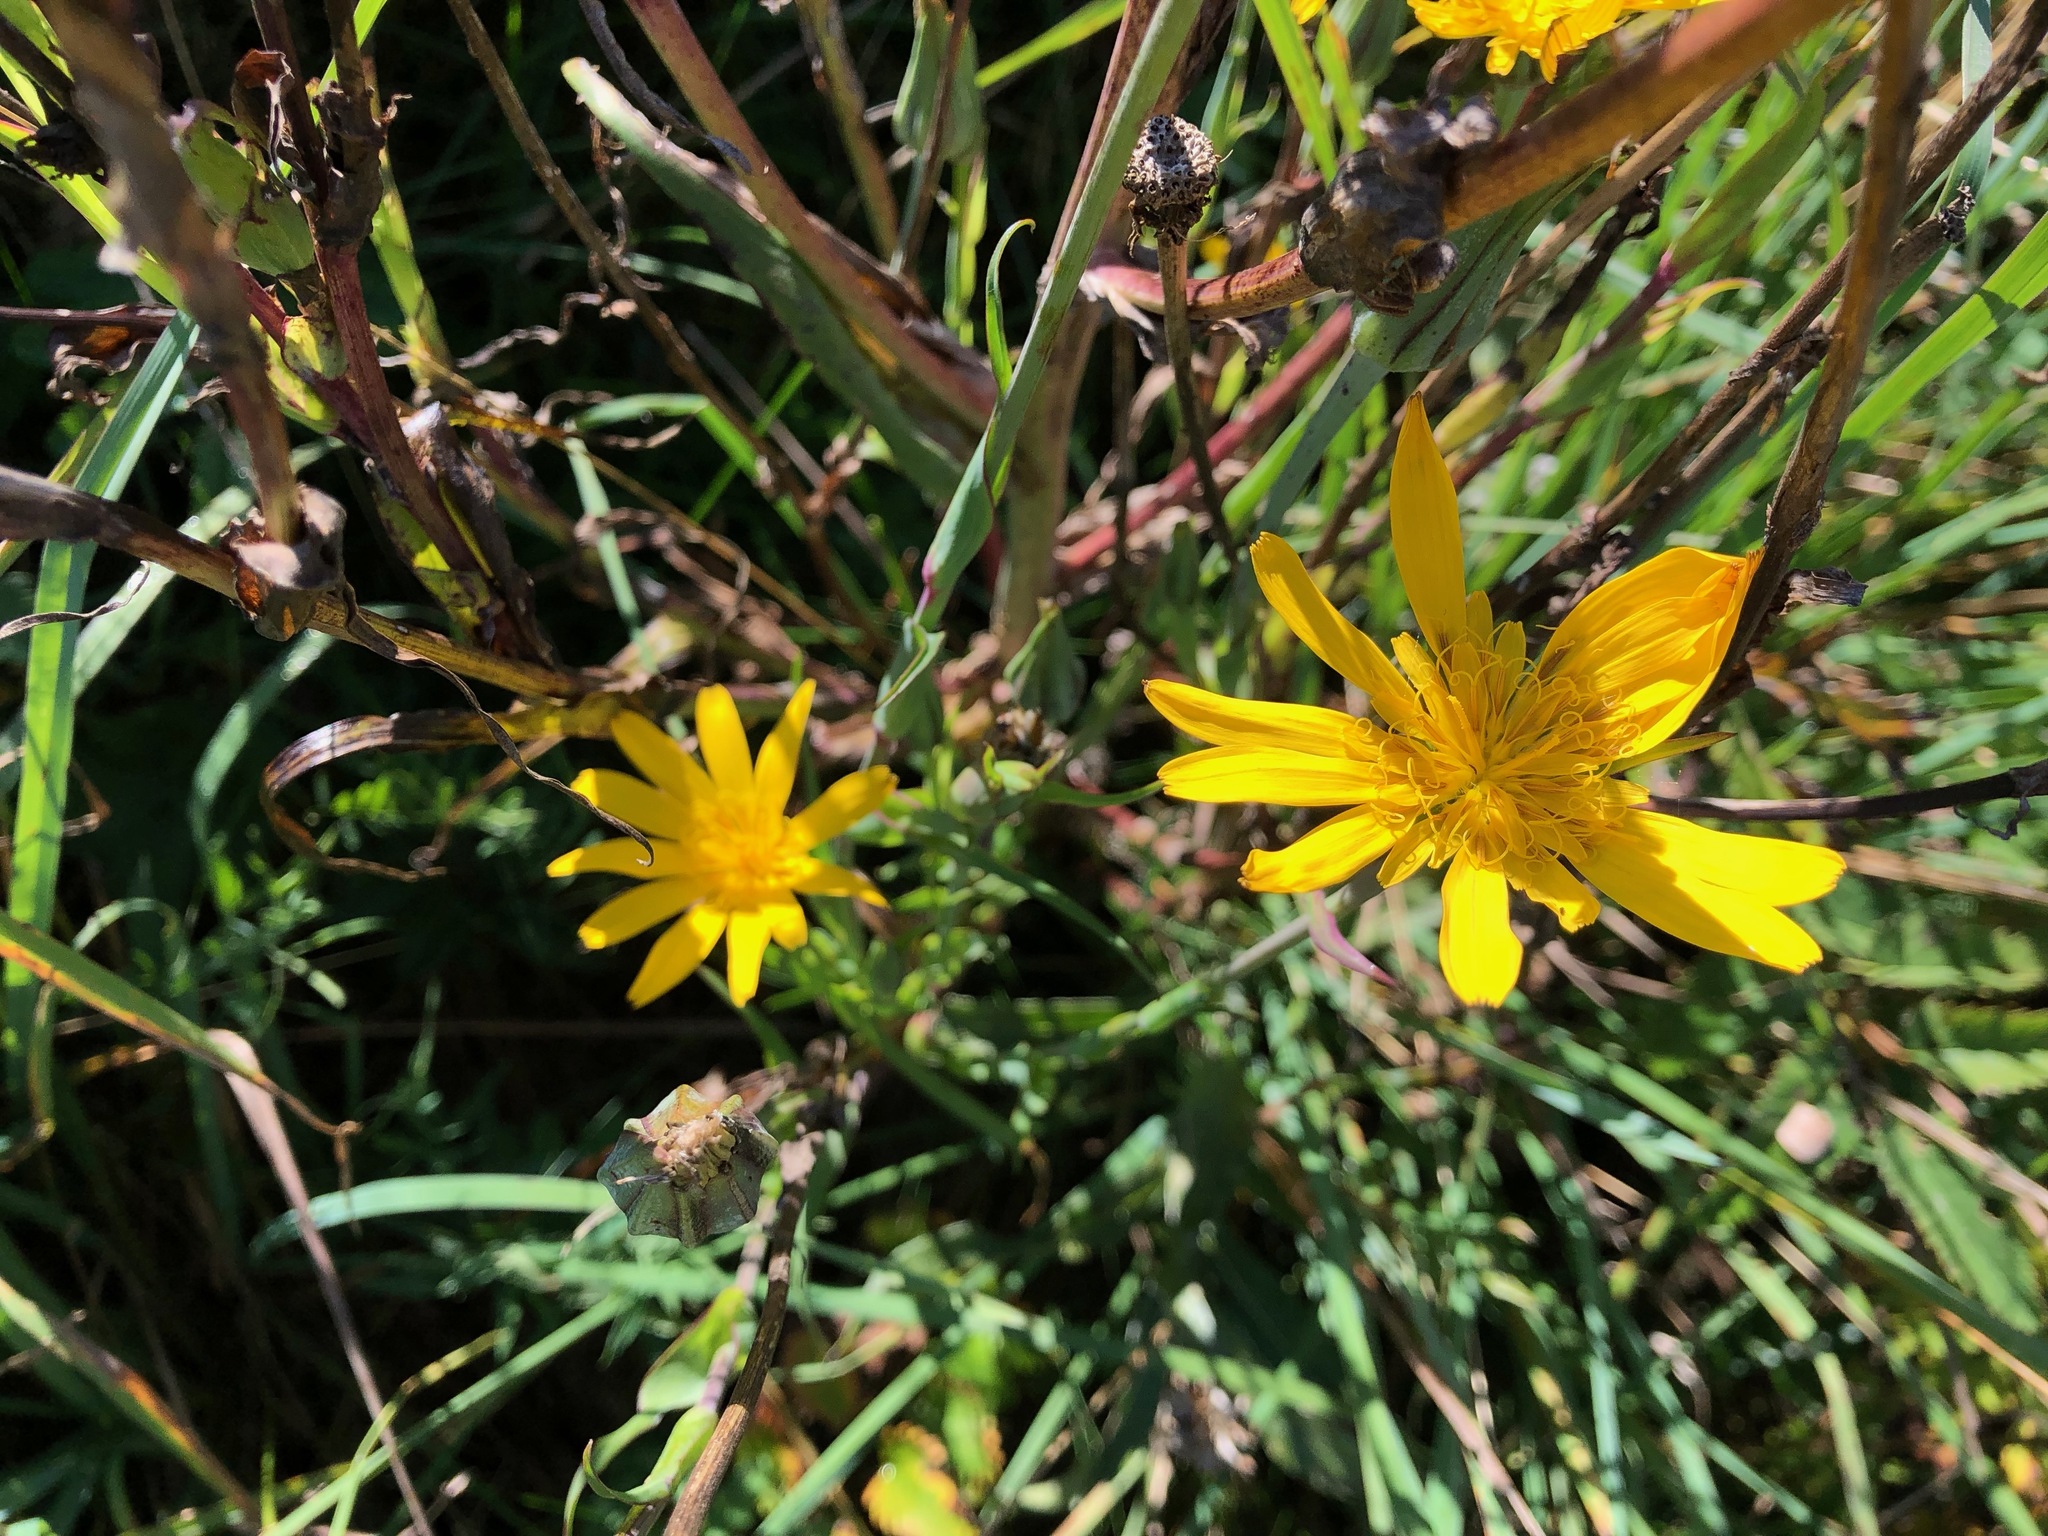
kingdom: Plantae
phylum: Tracheophyta
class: Magnoliopsida
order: Asterales
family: Asteraceae
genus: Tragopogon
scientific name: Tragopogon pratensis
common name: Goat's-beard
